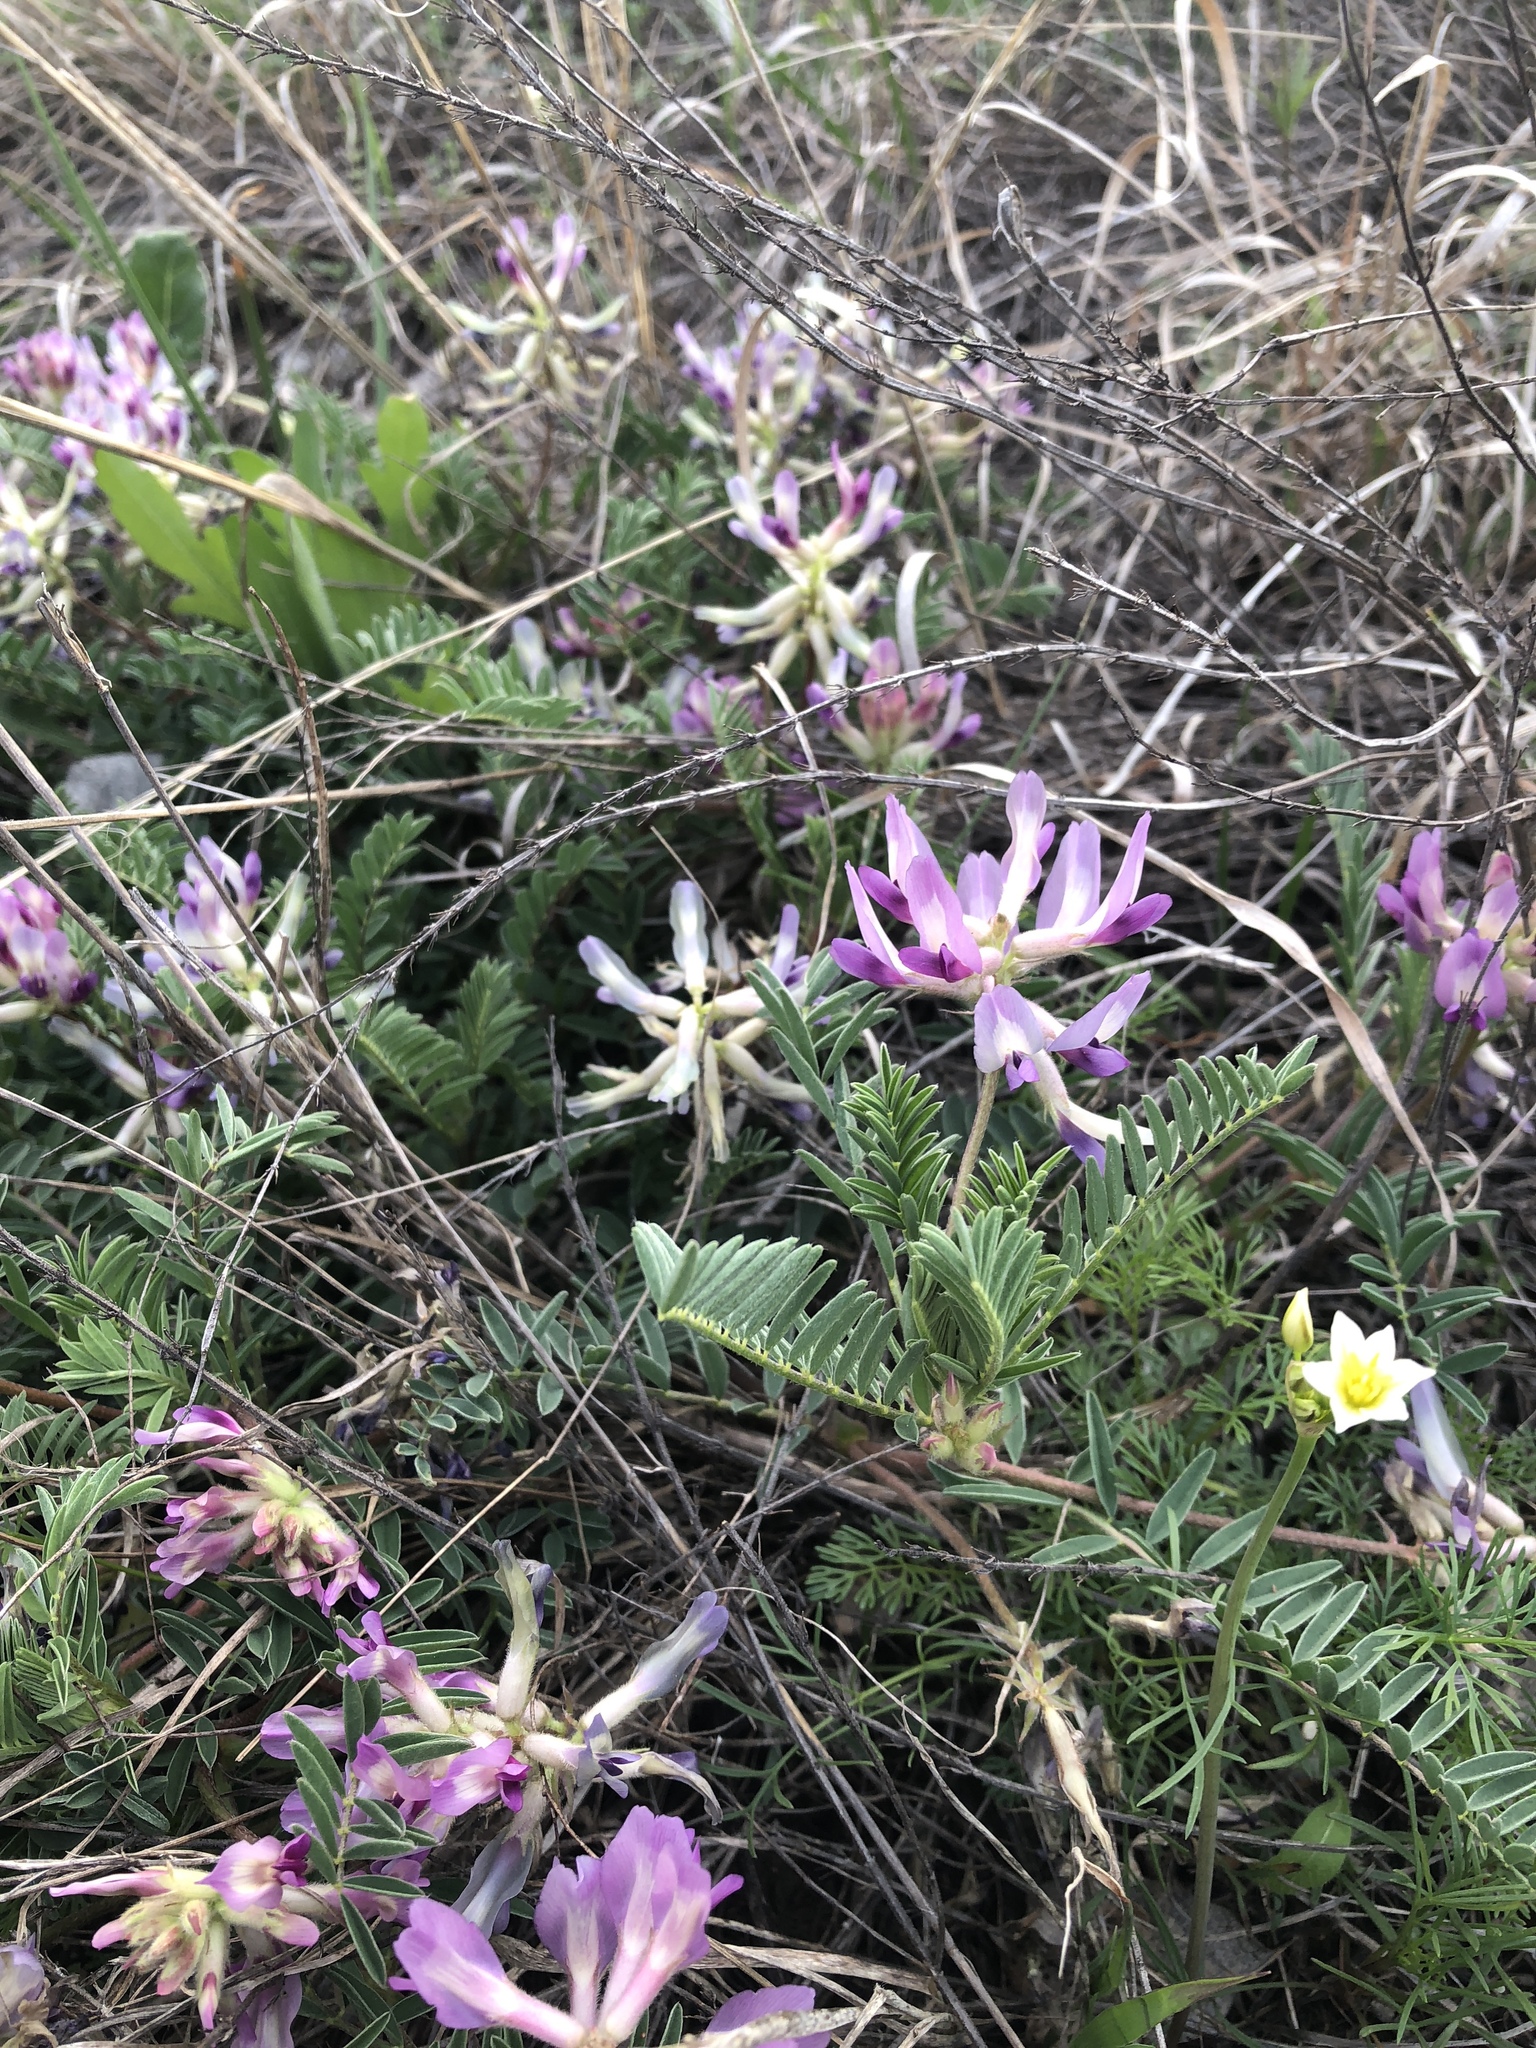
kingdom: Plantae
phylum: Tracheophyta
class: Magnoliopsida
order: Fabales
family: Fabaceae
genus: Astragalus
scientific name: Astragalus crassicarpus
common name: Ground-plum milk-vetch
